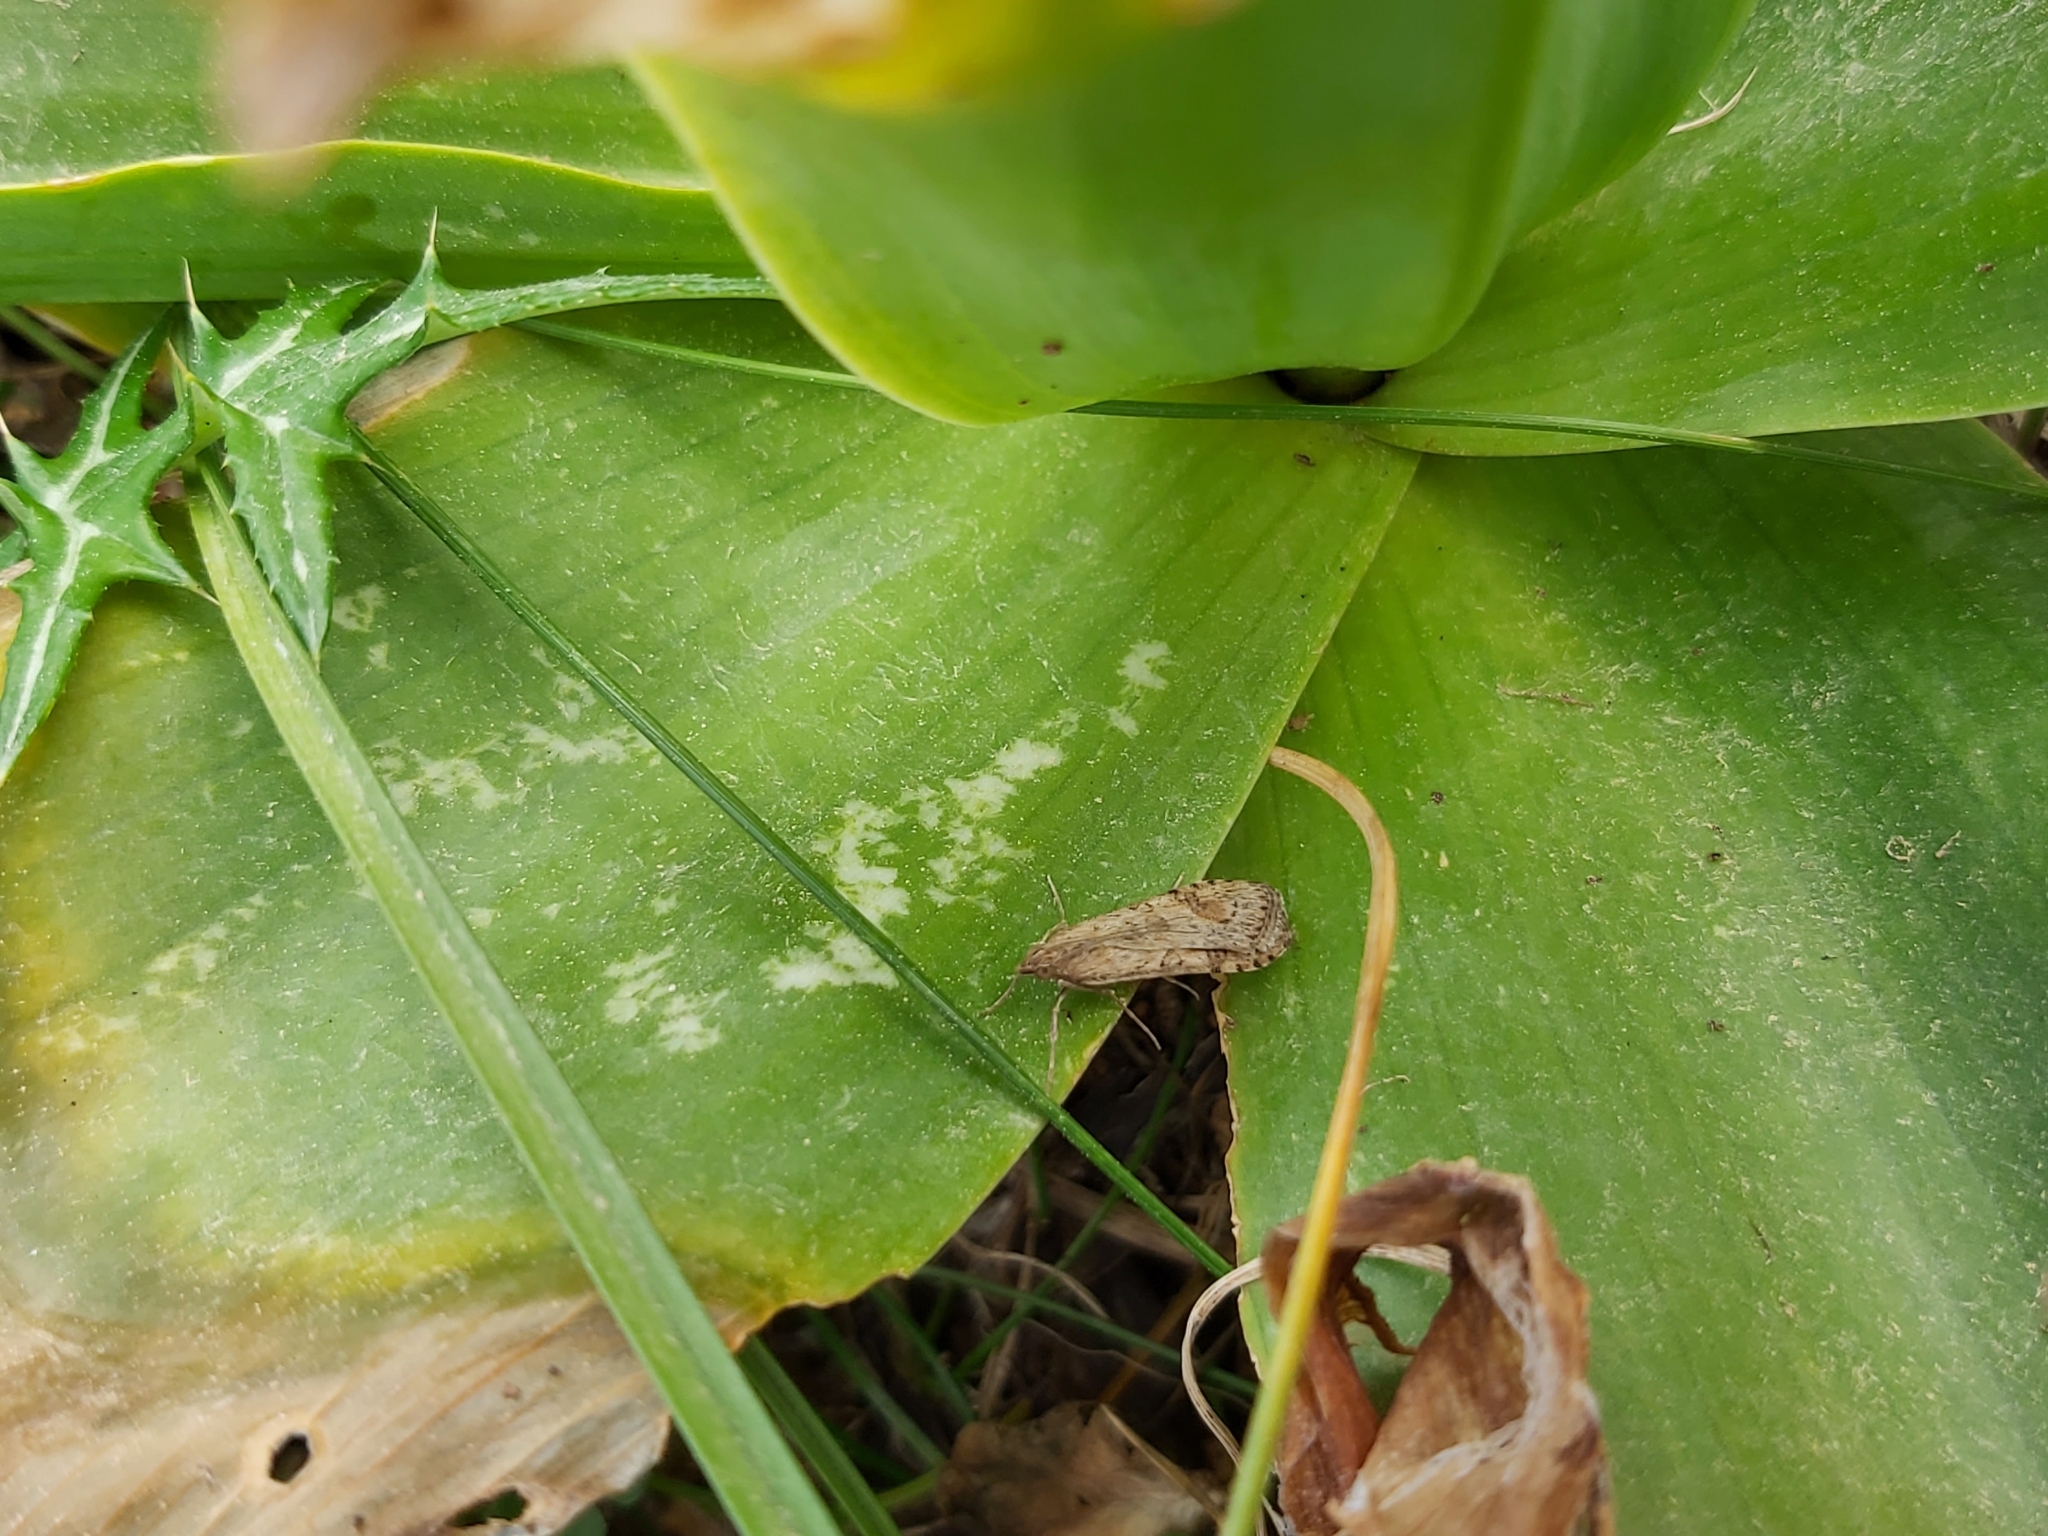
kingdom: Animalia
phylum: Arthropoda
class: Insecta
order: Lepidoptera
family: Crambidae
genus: Nomophila
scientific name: Nomophila noctuella
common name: Rush veneer
